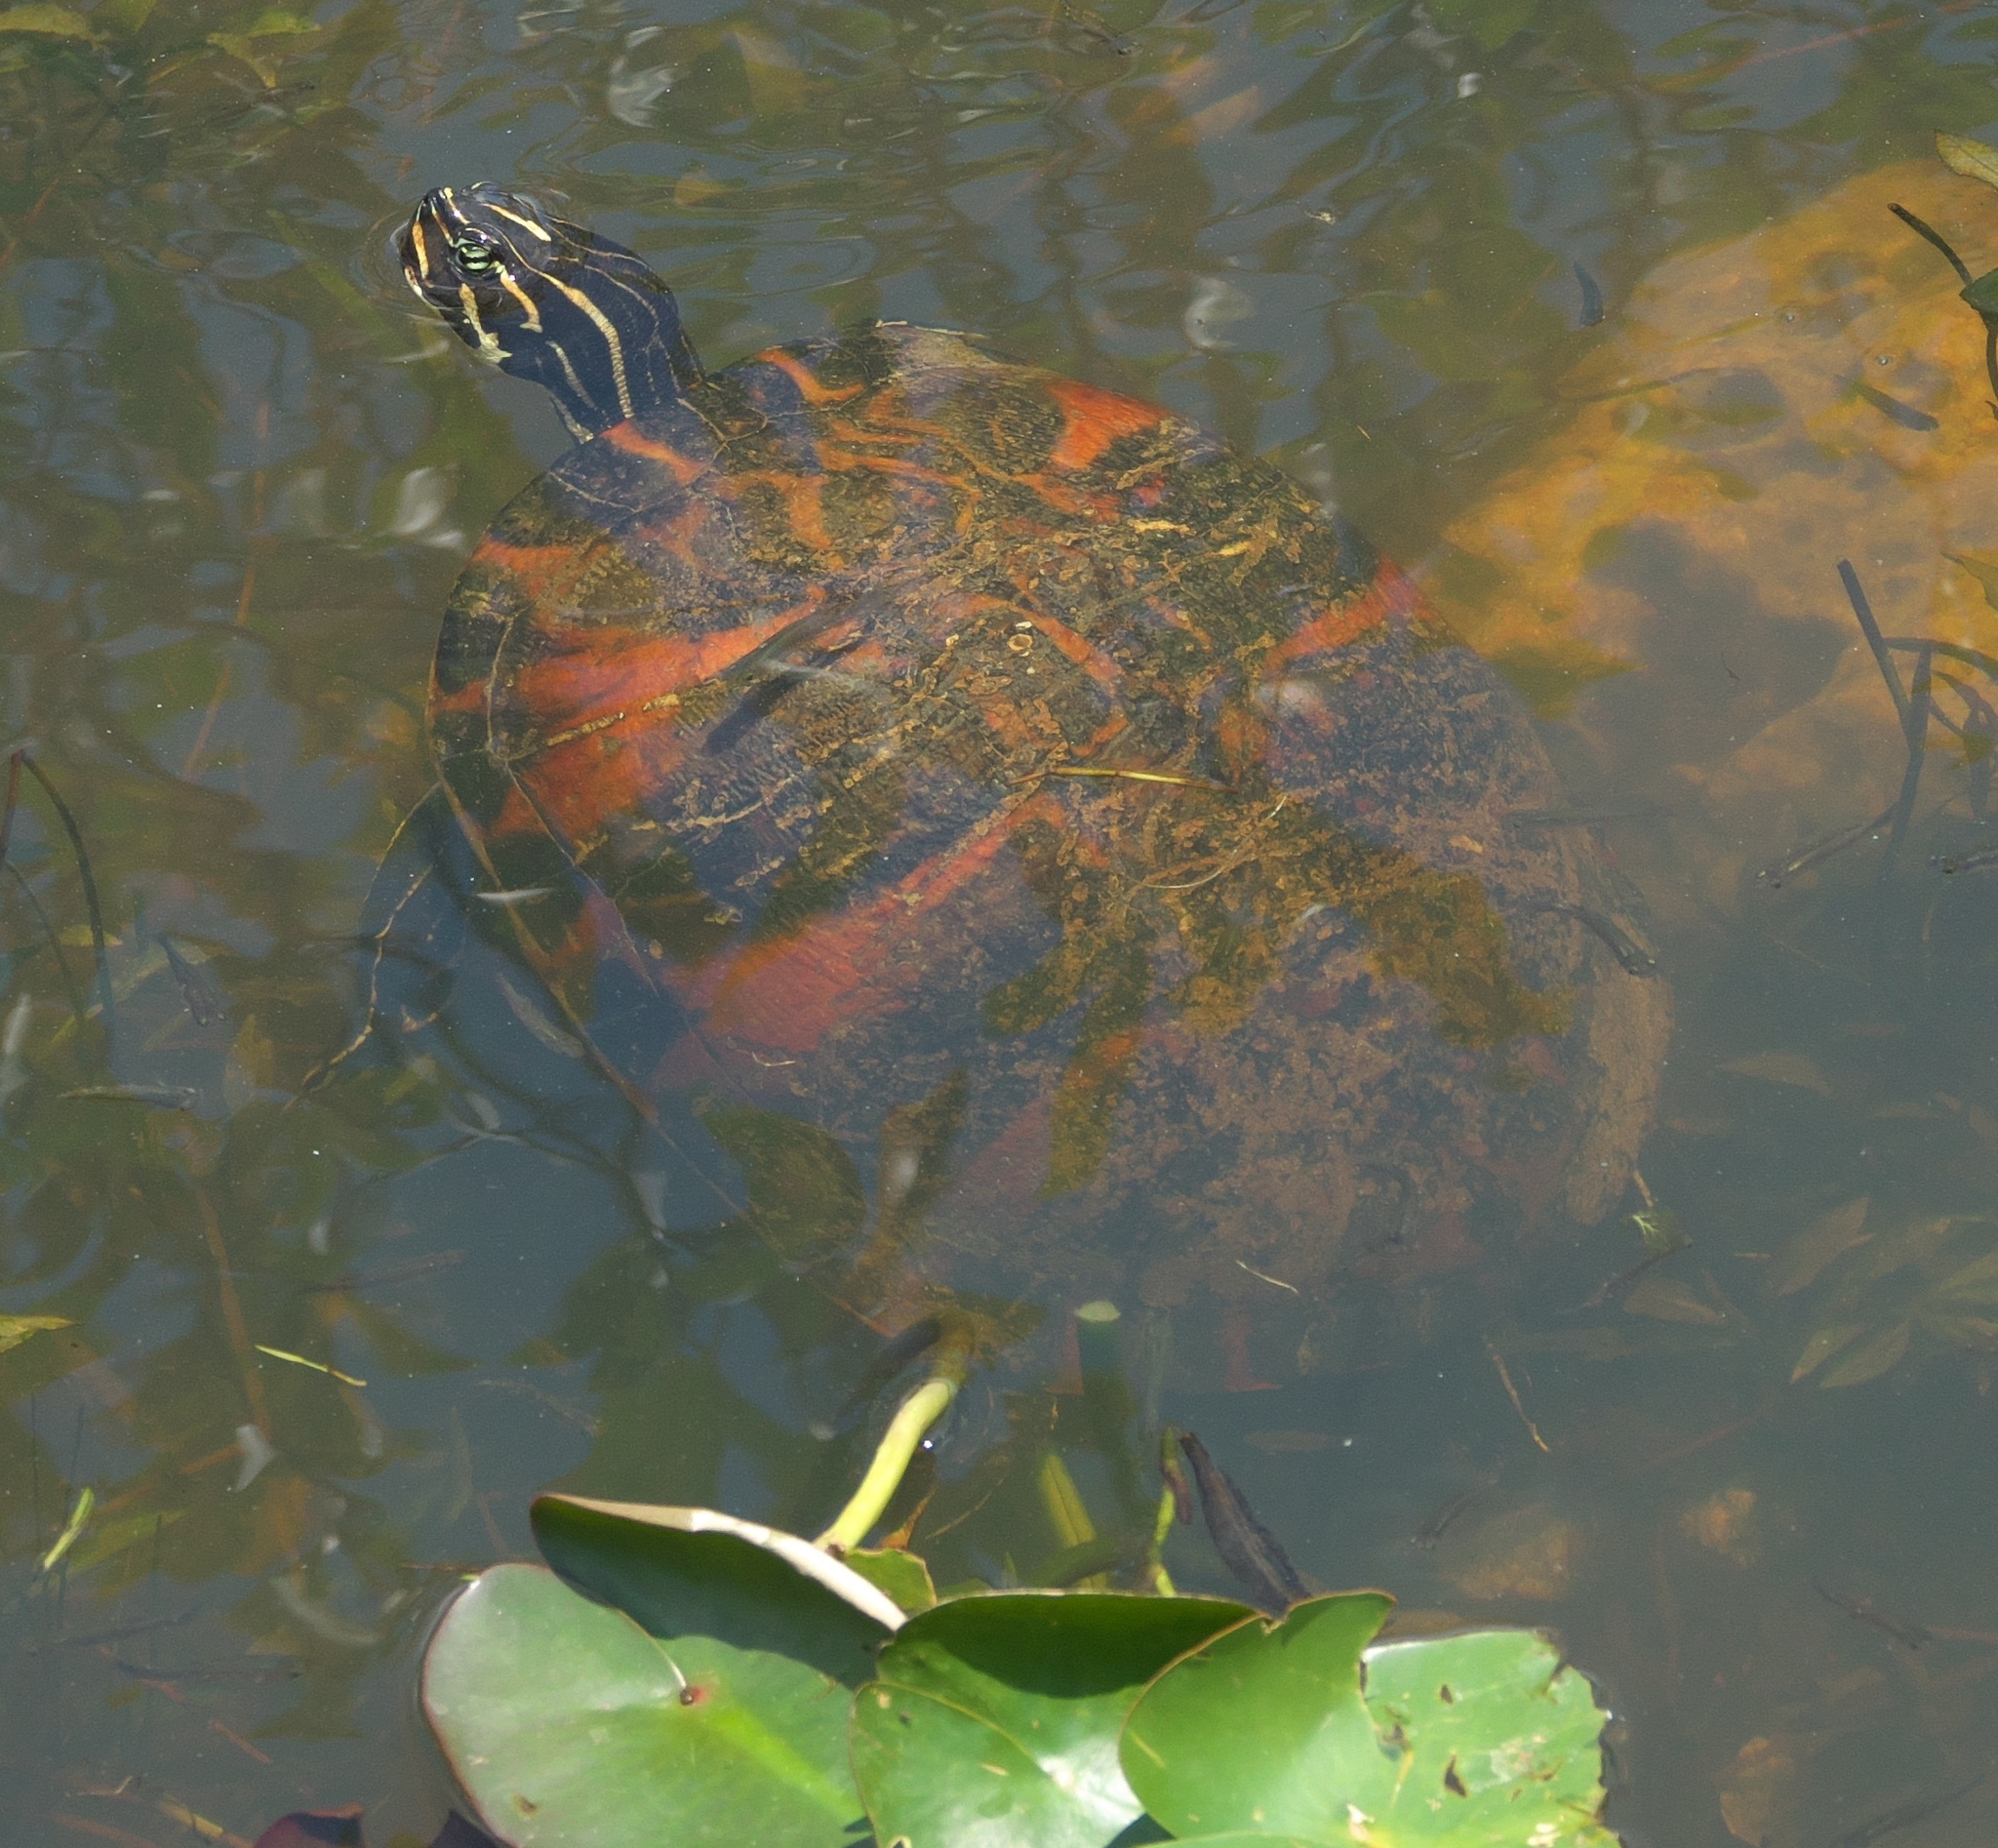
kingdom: Animalia
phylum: Chordata
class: Testudines
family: Emydidae
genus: Pseudemys
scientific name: Pseudemys nelsoni
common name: Florida red-bellied turtle
